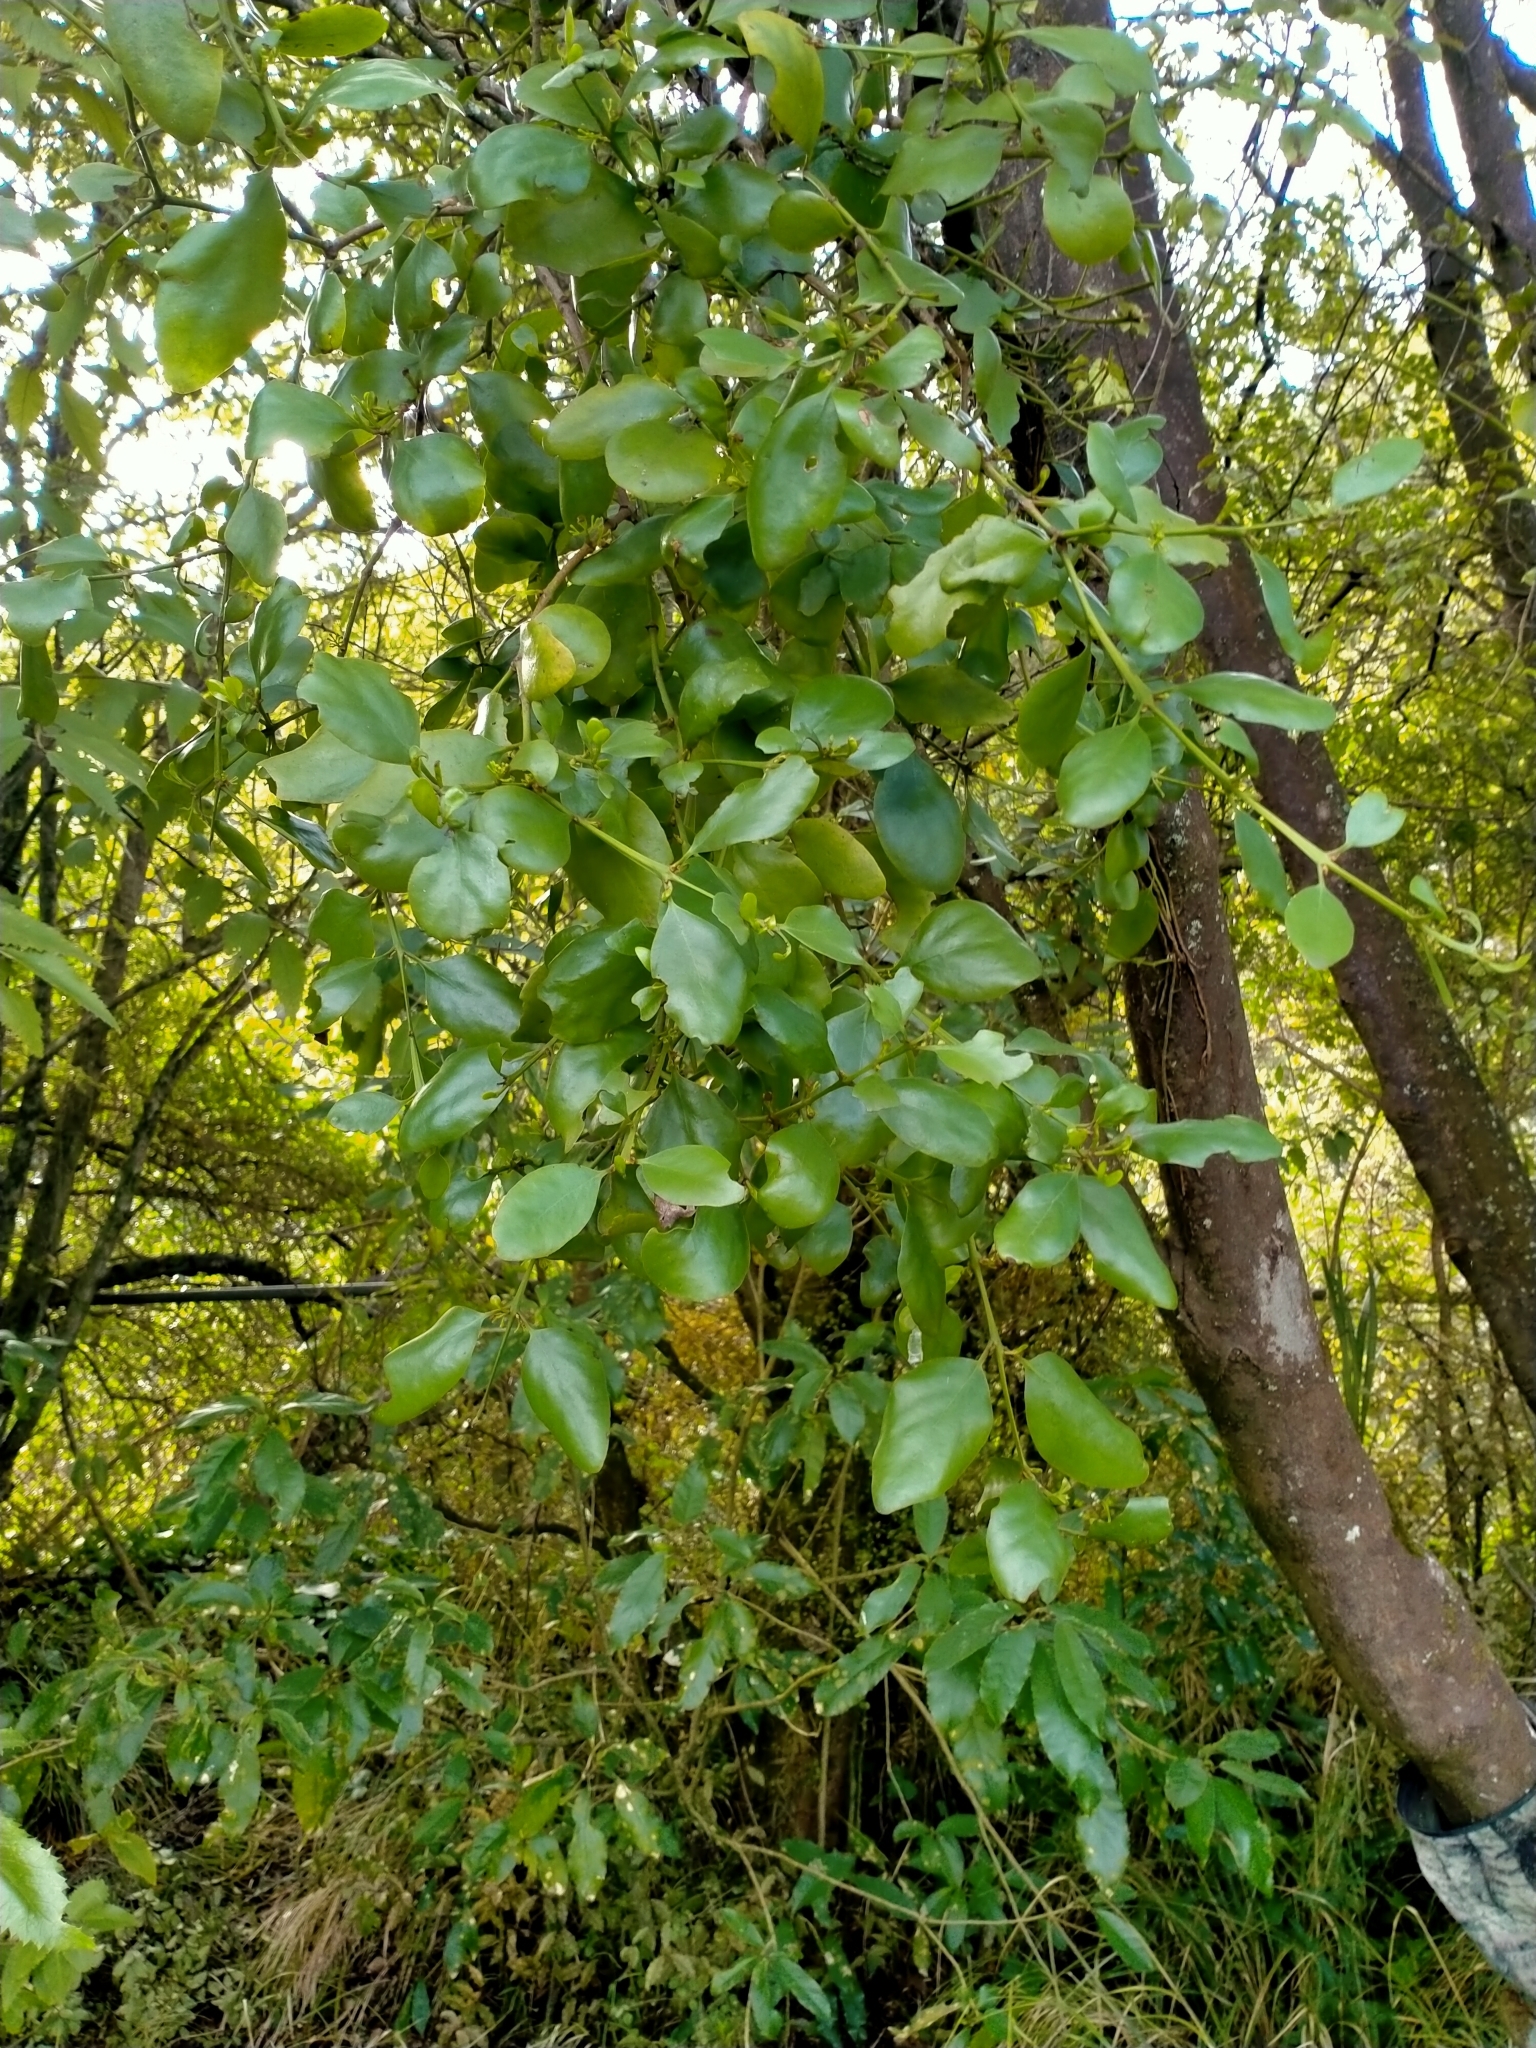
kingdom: Plantae
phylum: Tracheophyta
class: Magnoliopsida
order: Santalales
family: Loranthaceae
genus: Ileostylus
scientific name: Ileostylus micranthus
